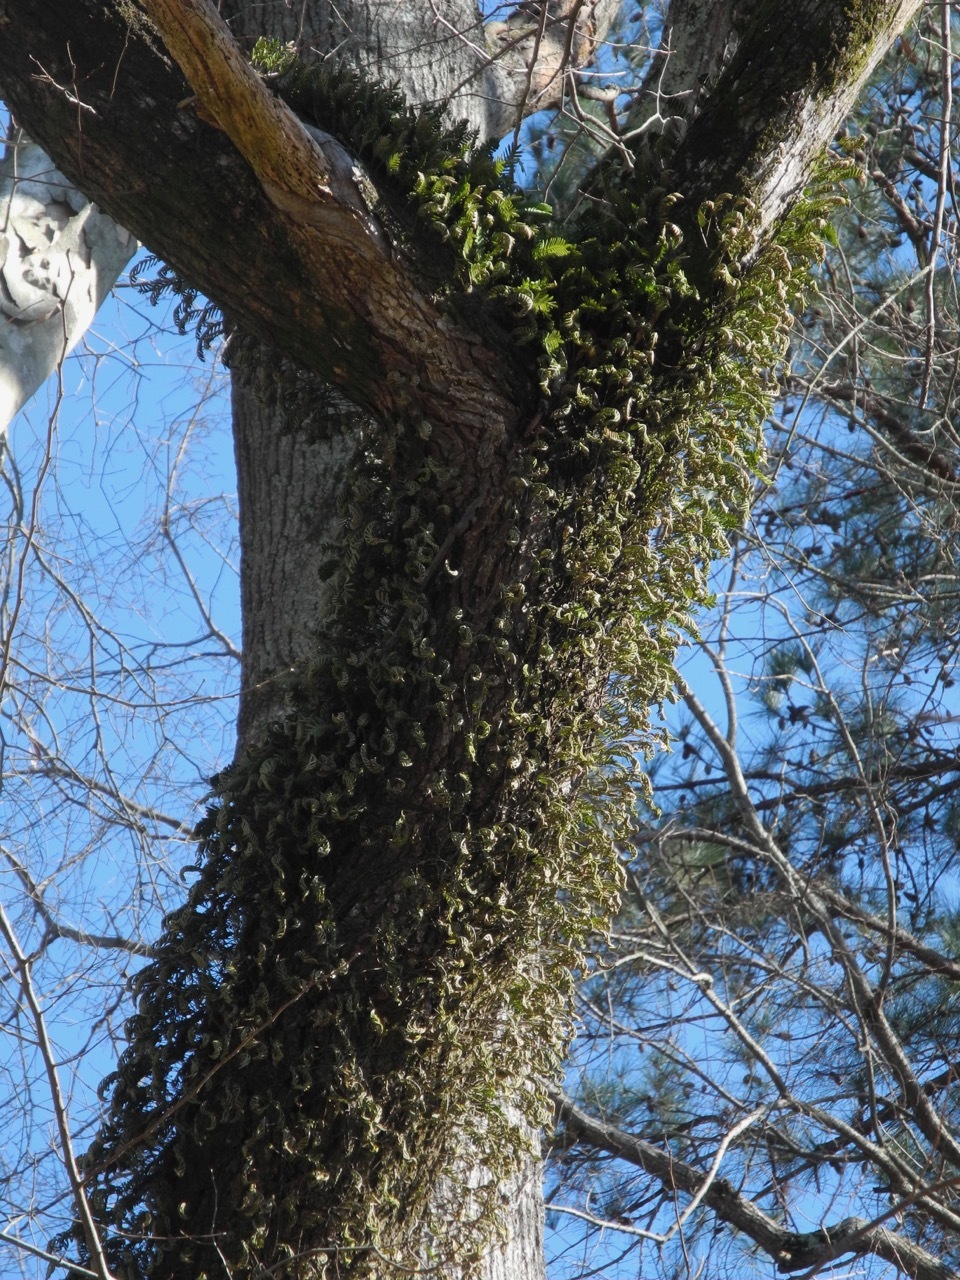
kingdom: Plantae
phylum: Tracheophyta
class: Polypodiopsida
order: Polypodiales
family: Polypodiaceae
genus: Pleopeltis
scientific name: Pleopeltis michauxiana
